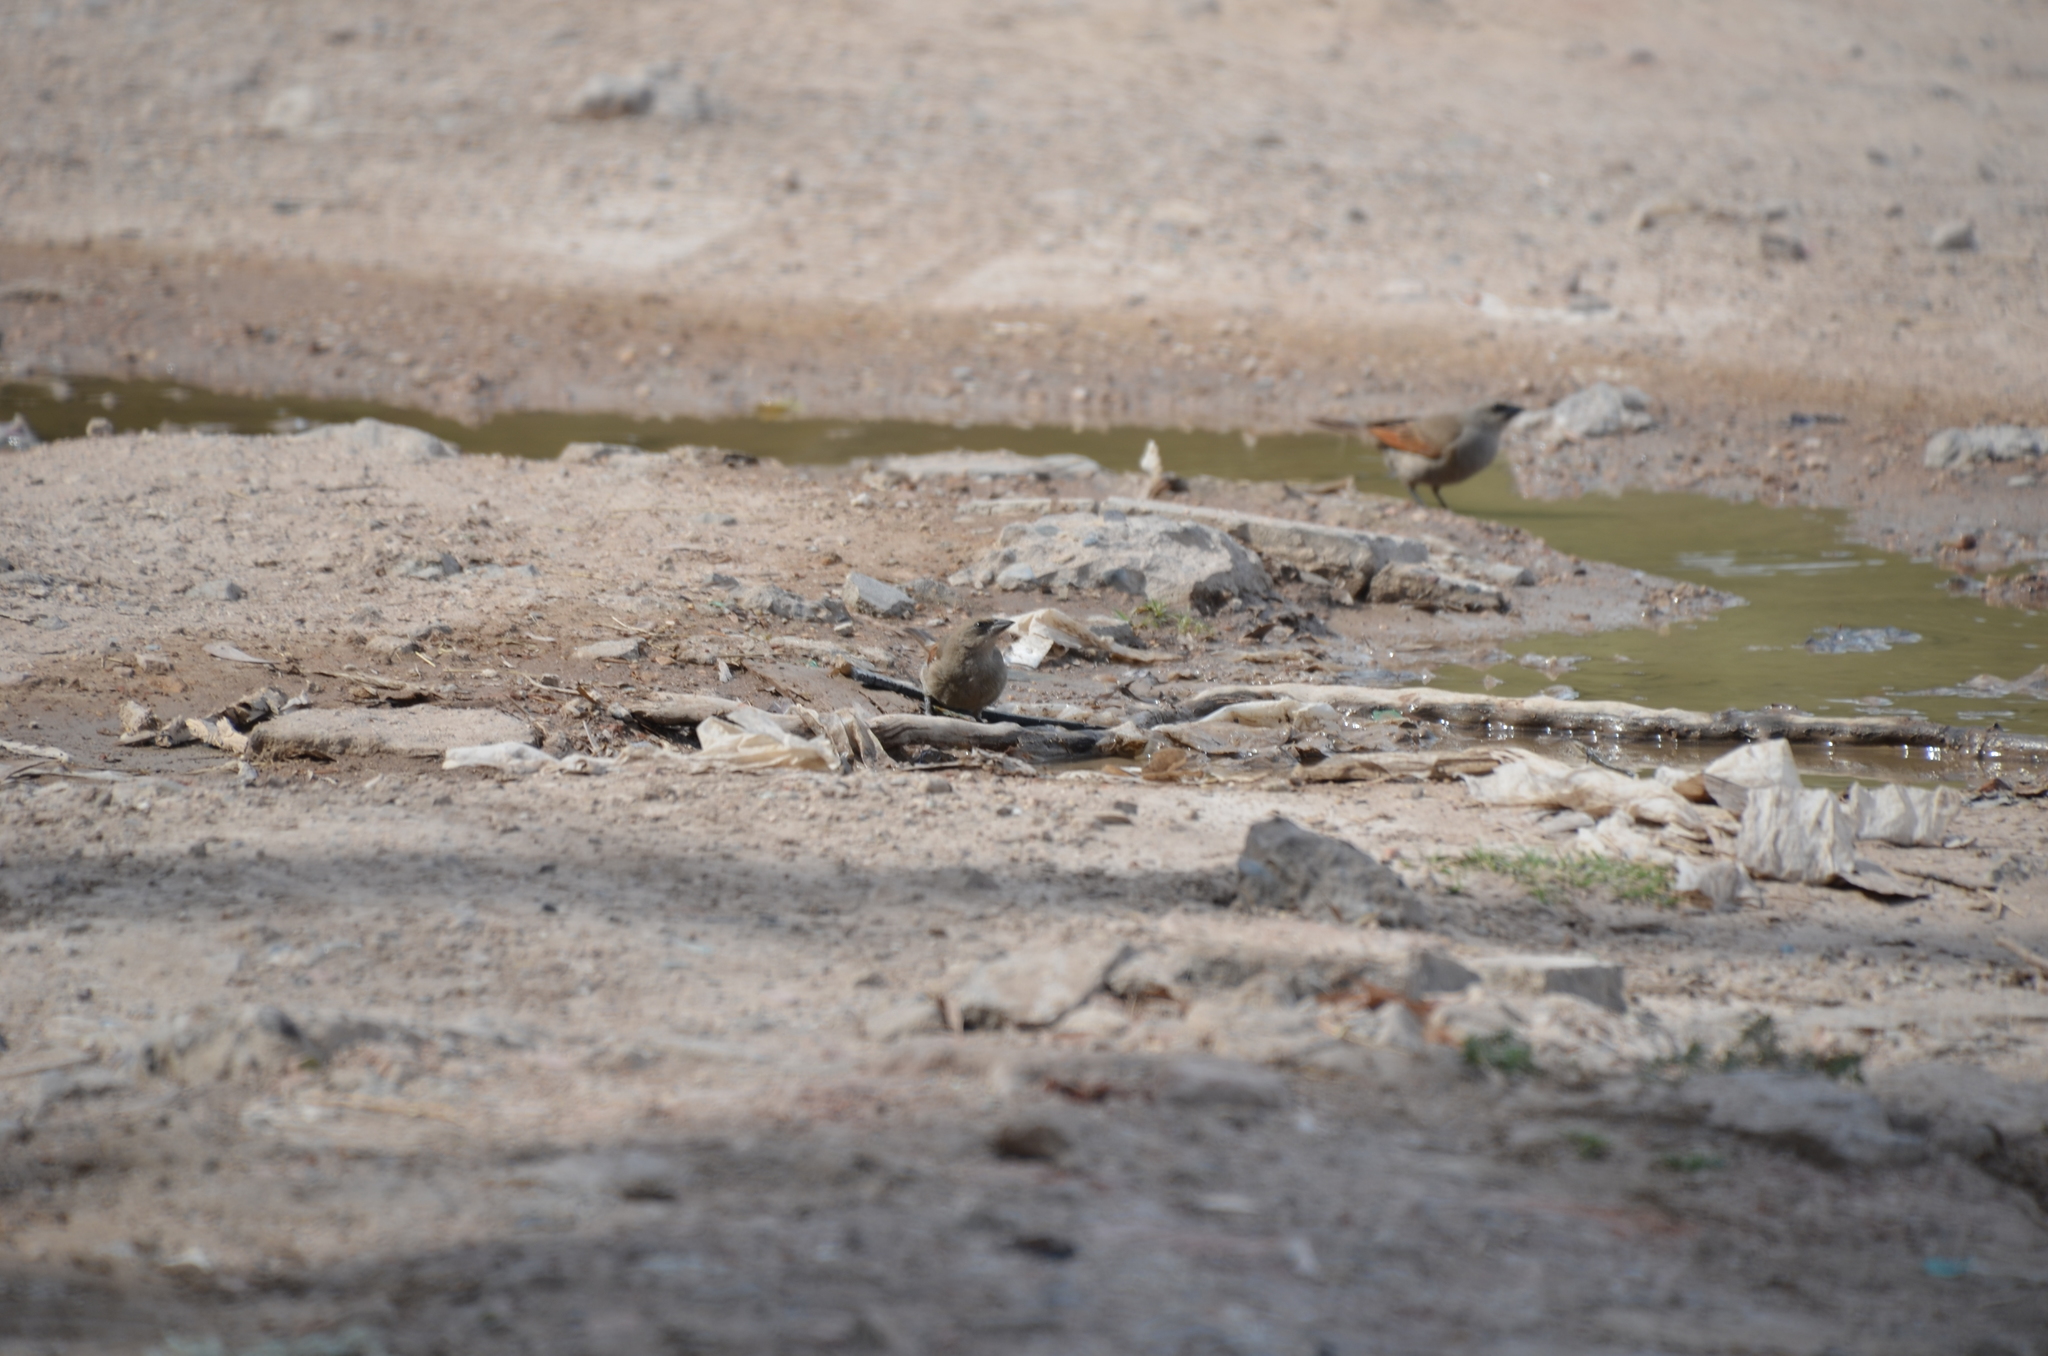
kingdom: Animalia
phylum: Chordata
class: Aves
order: Passeriformes
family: Icteridae
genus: Agelaioides
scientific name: Agelaioides badius
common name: Baywing
